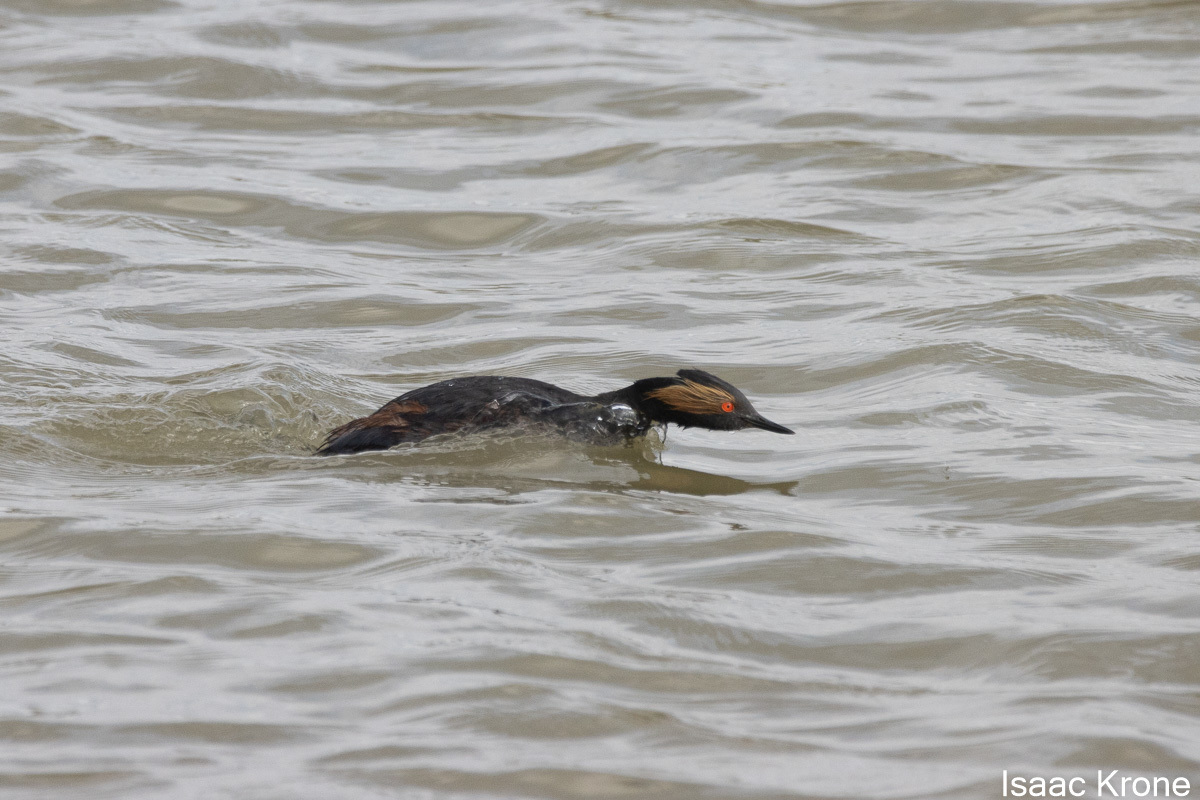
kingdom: Animalia
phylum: Chordata
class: Aves
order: Podicipediformes
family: Podicipedidae
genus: Podiceps
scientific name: Podiceps nigricollis
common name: Black-necked grebe
